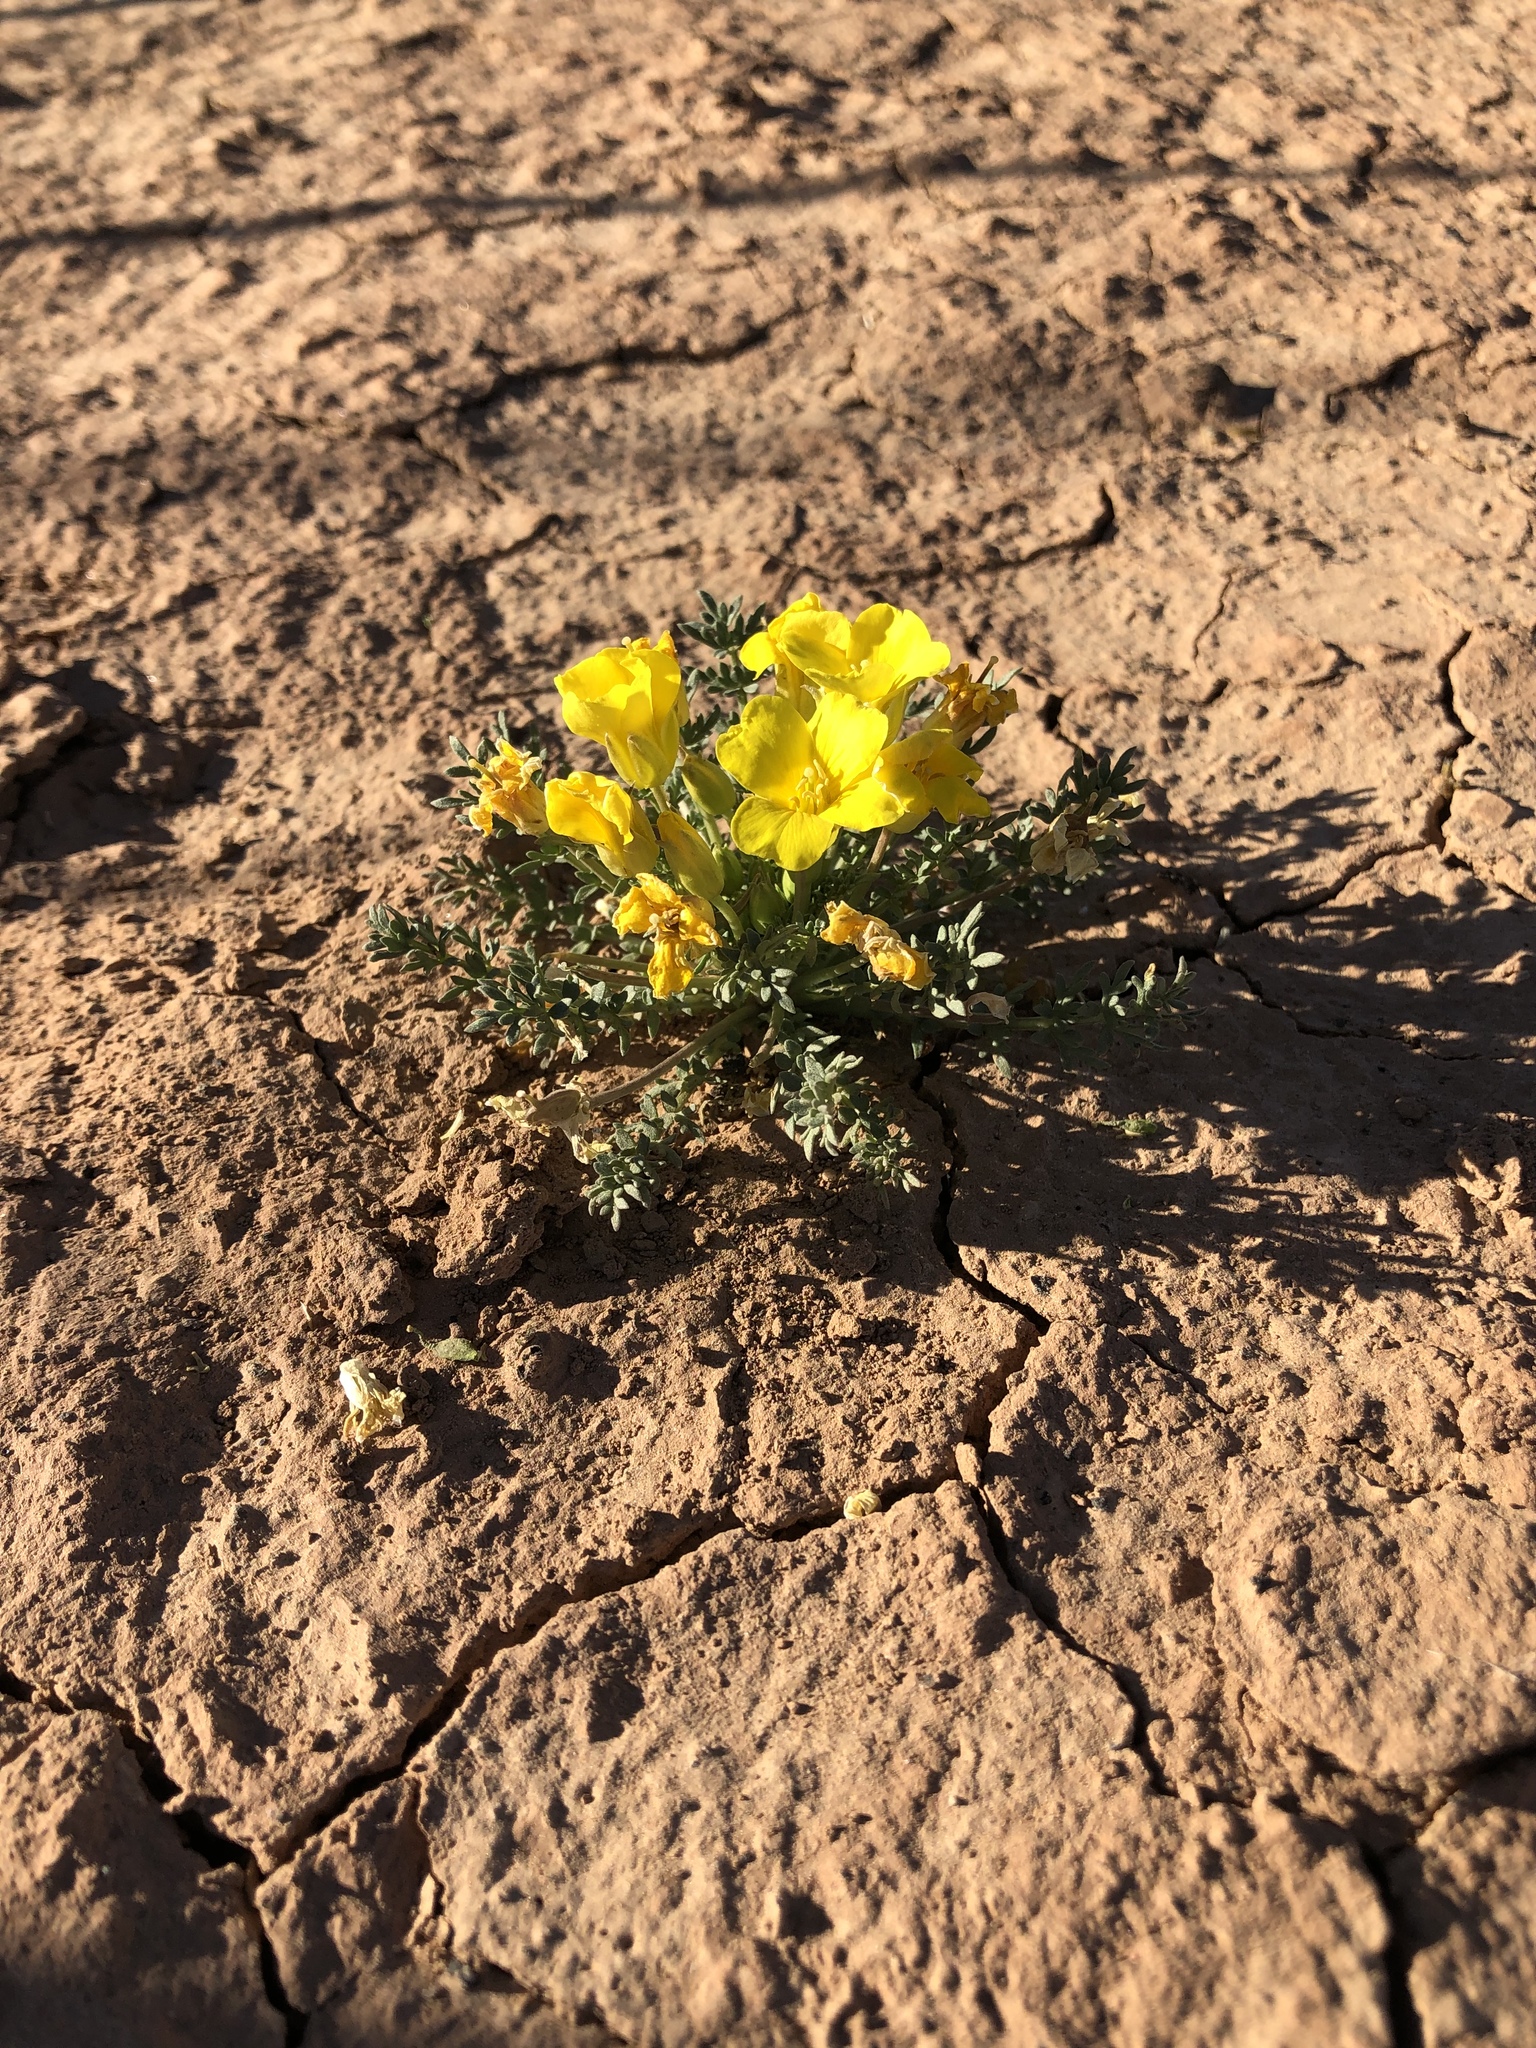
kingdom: Plantae
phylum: Tracheophyta
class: Magnoliopsida
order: Brassicales
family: Brassicaceae
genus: Selenia
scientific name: Selenia dissecta
